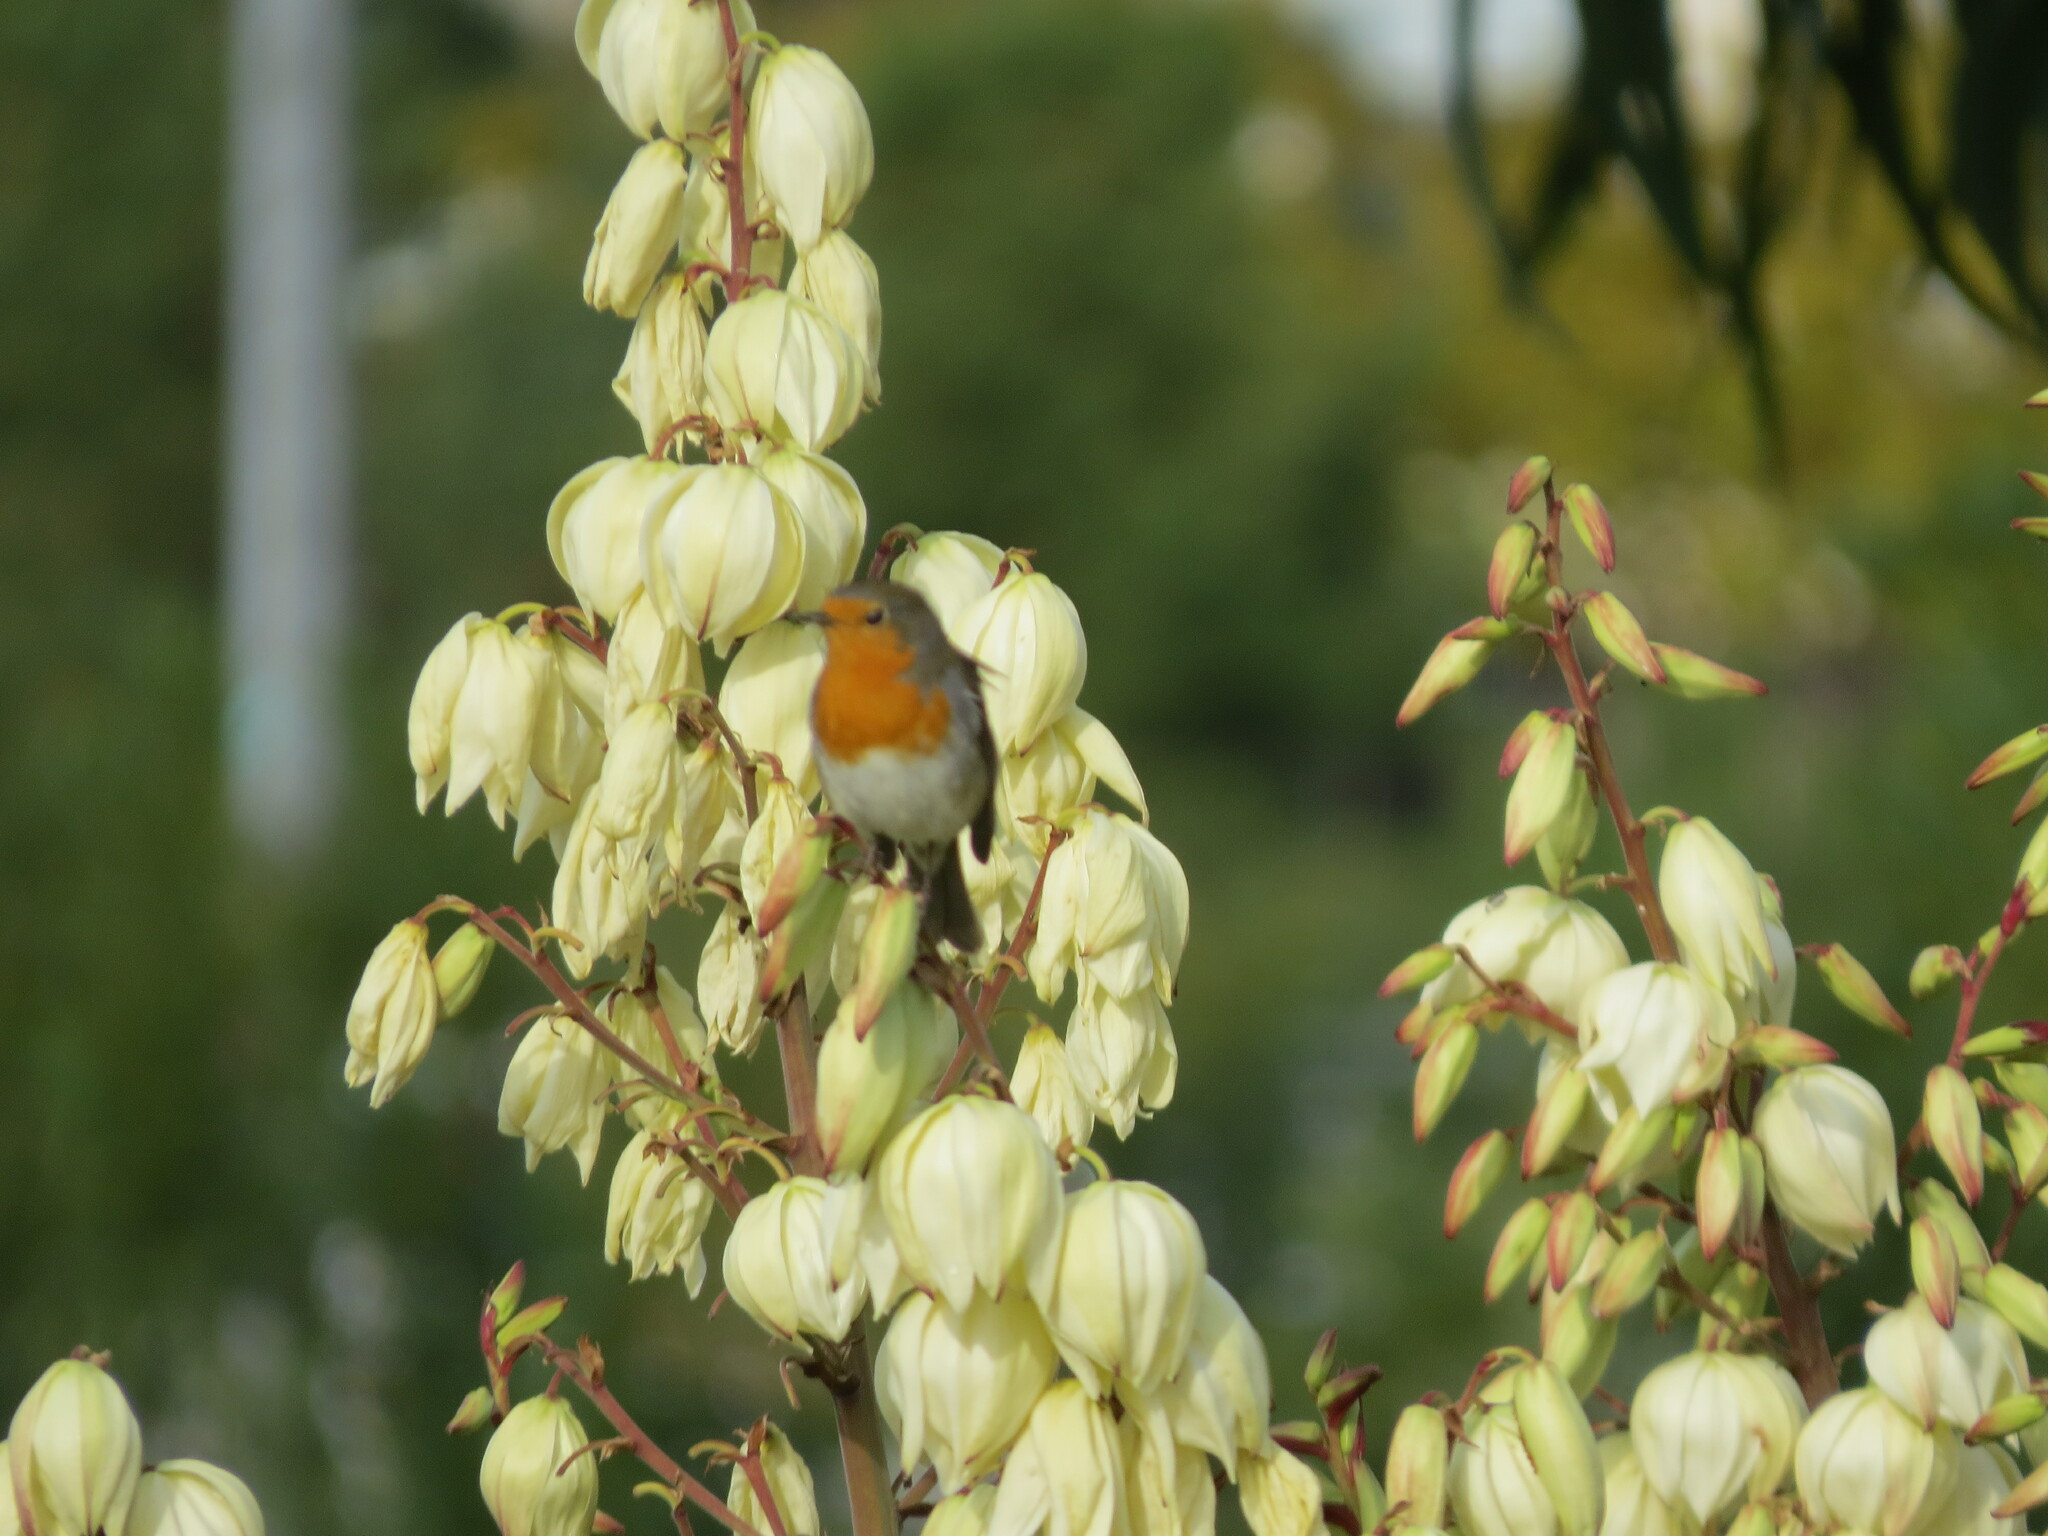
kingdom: Animalia
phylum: Chordata
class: Aves
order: Passeriformes
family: Muscicapidae
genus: Erithacus
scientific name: Erithacus rubecula
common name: European robin
